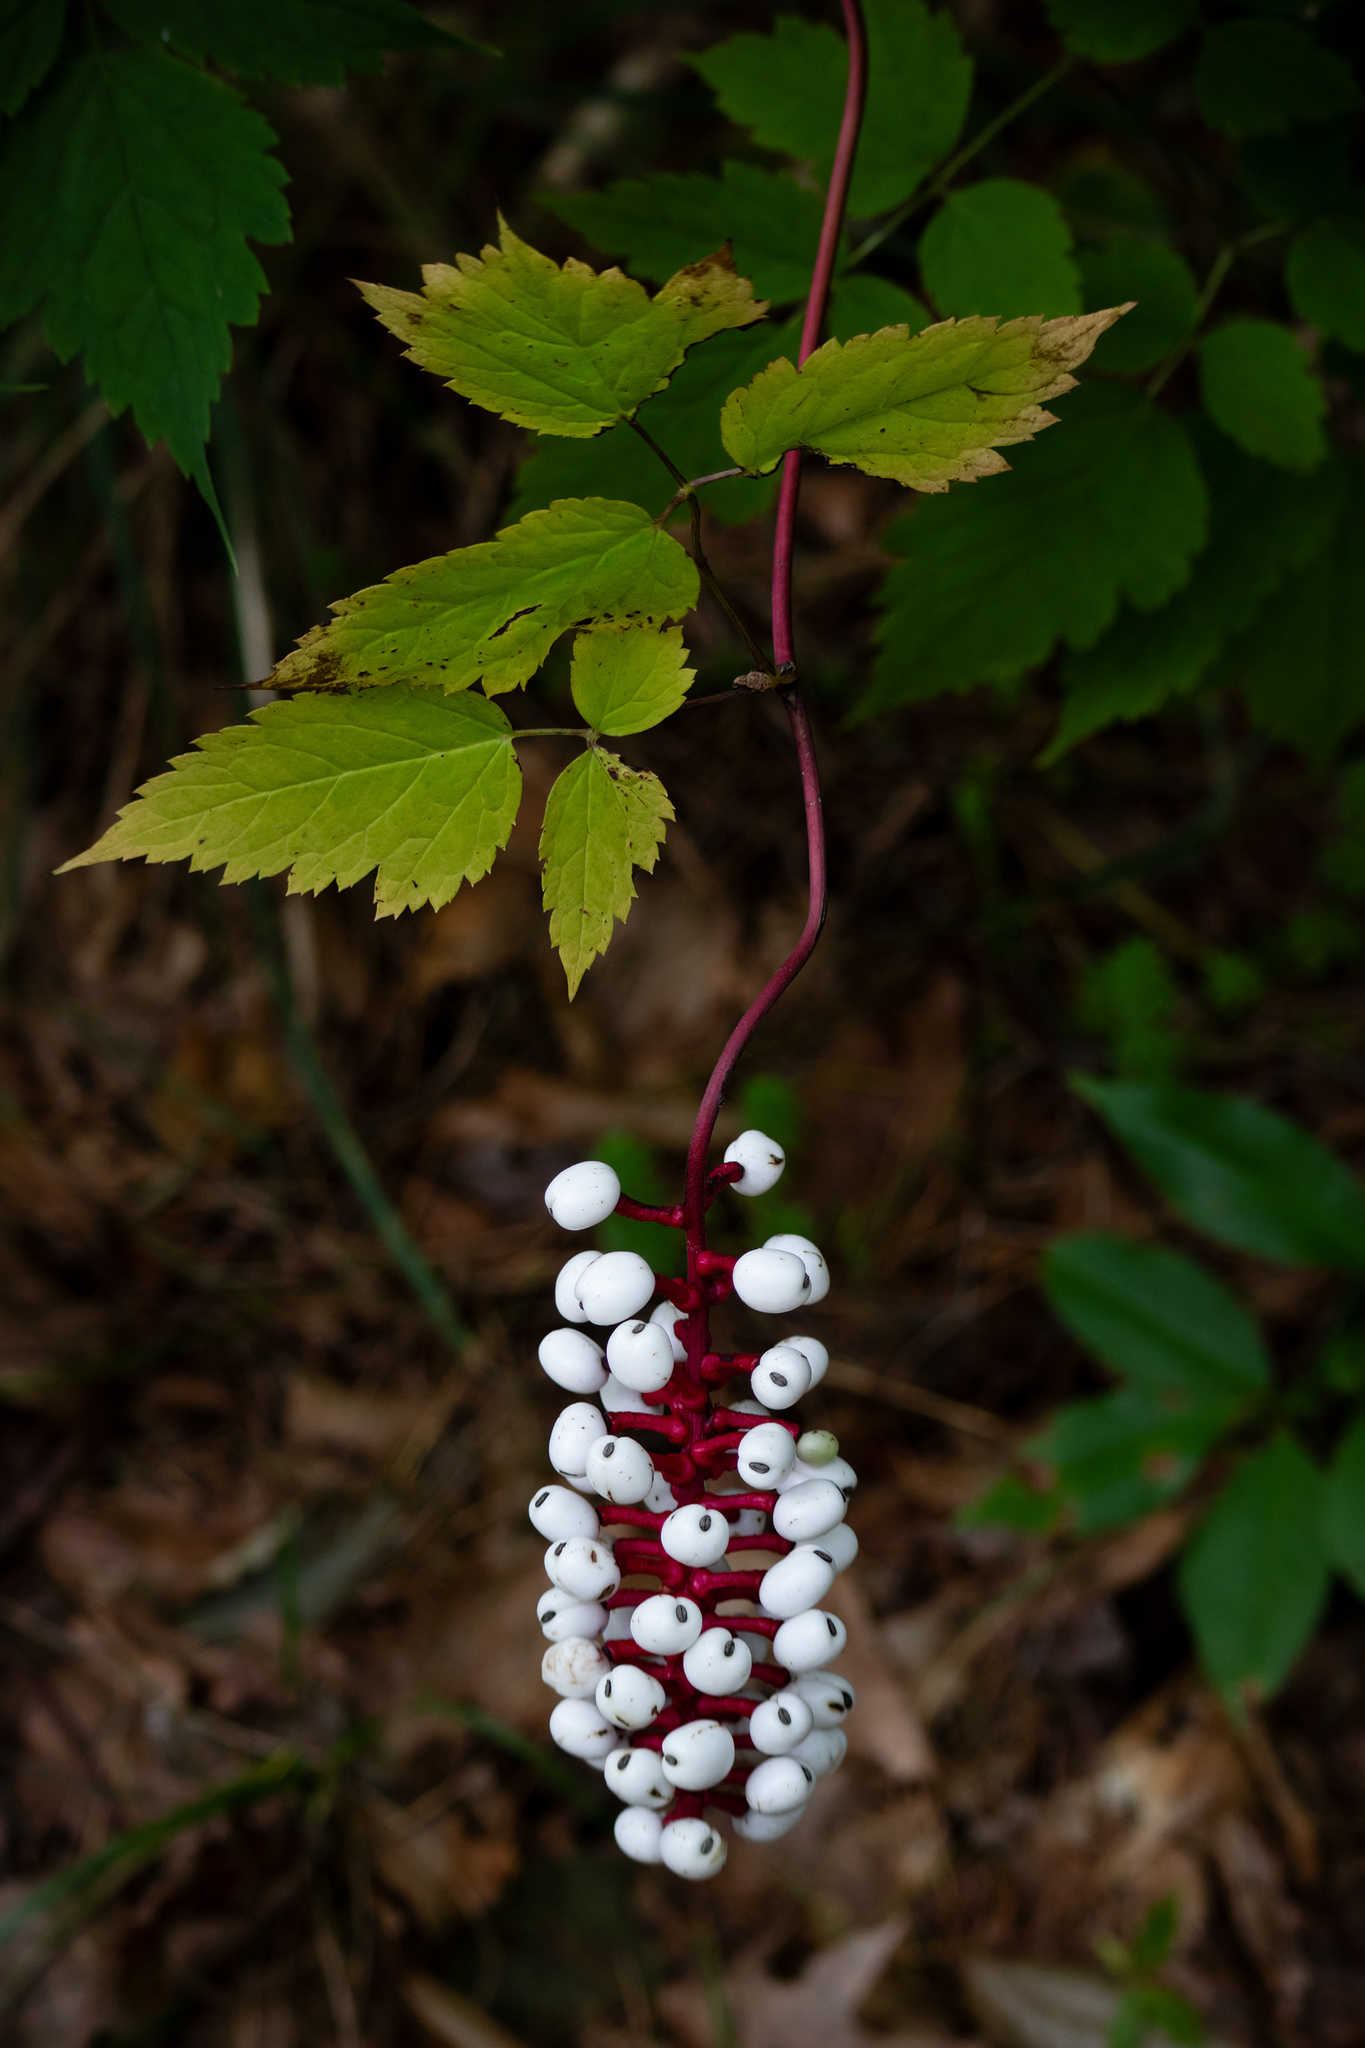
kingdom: Plantae
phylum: Tracheophyta
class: Magnoliopsida
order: Ranunculales
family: Ranunculaceae
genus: Actaea
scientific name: Actaea pachypoda
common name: Doll's-eyes
